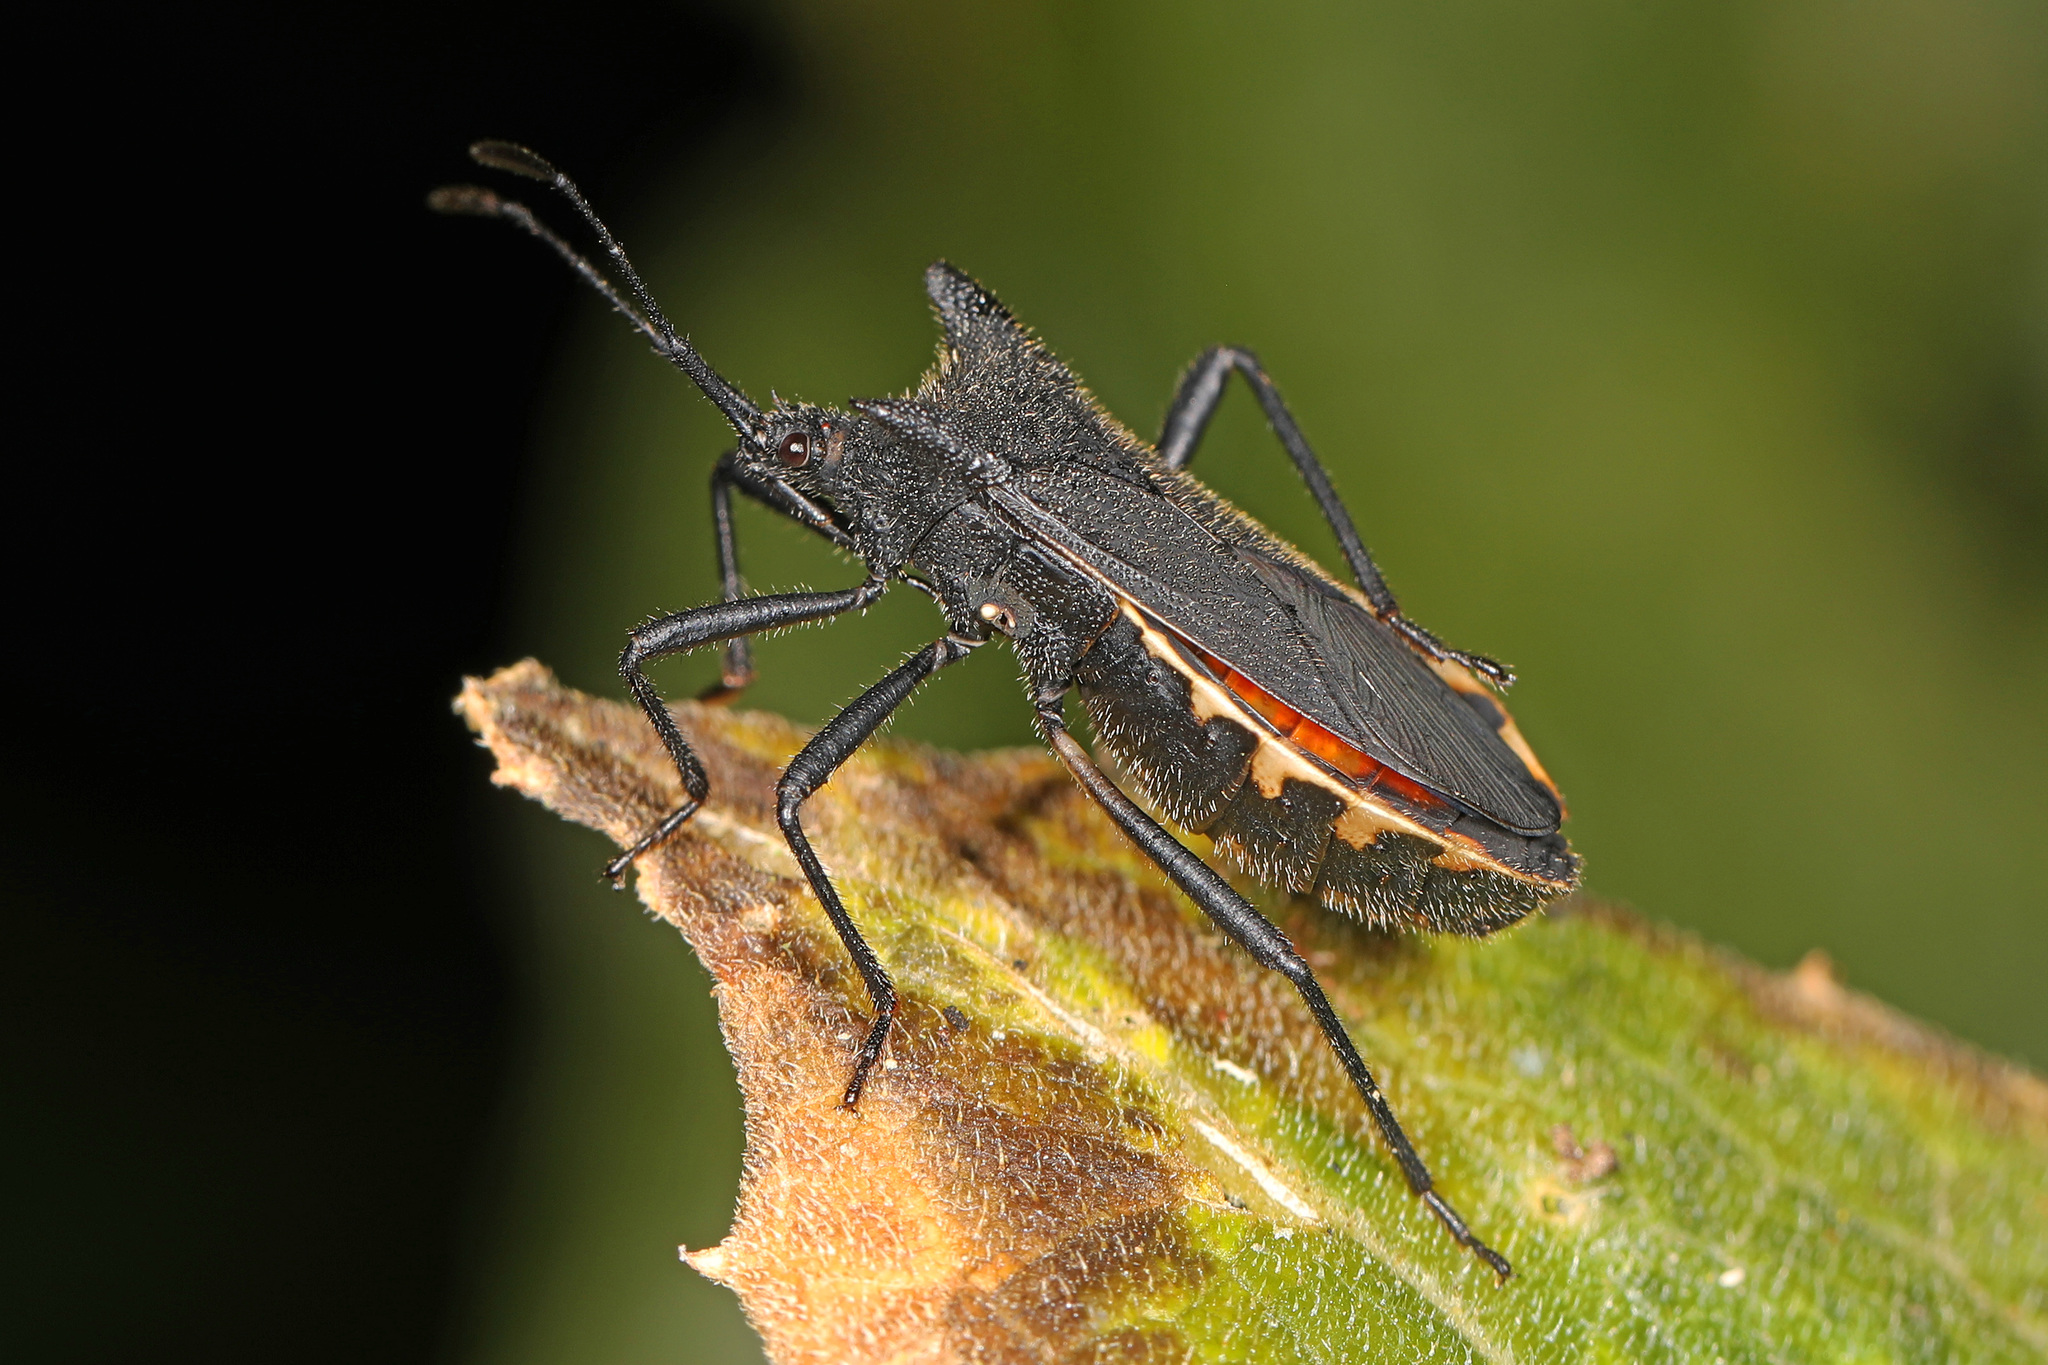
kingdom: Animalia
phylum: Arthropoda
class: Insecta
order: Hemiptera
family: Coreidae
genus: Anasa
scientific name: Anasa onorei
